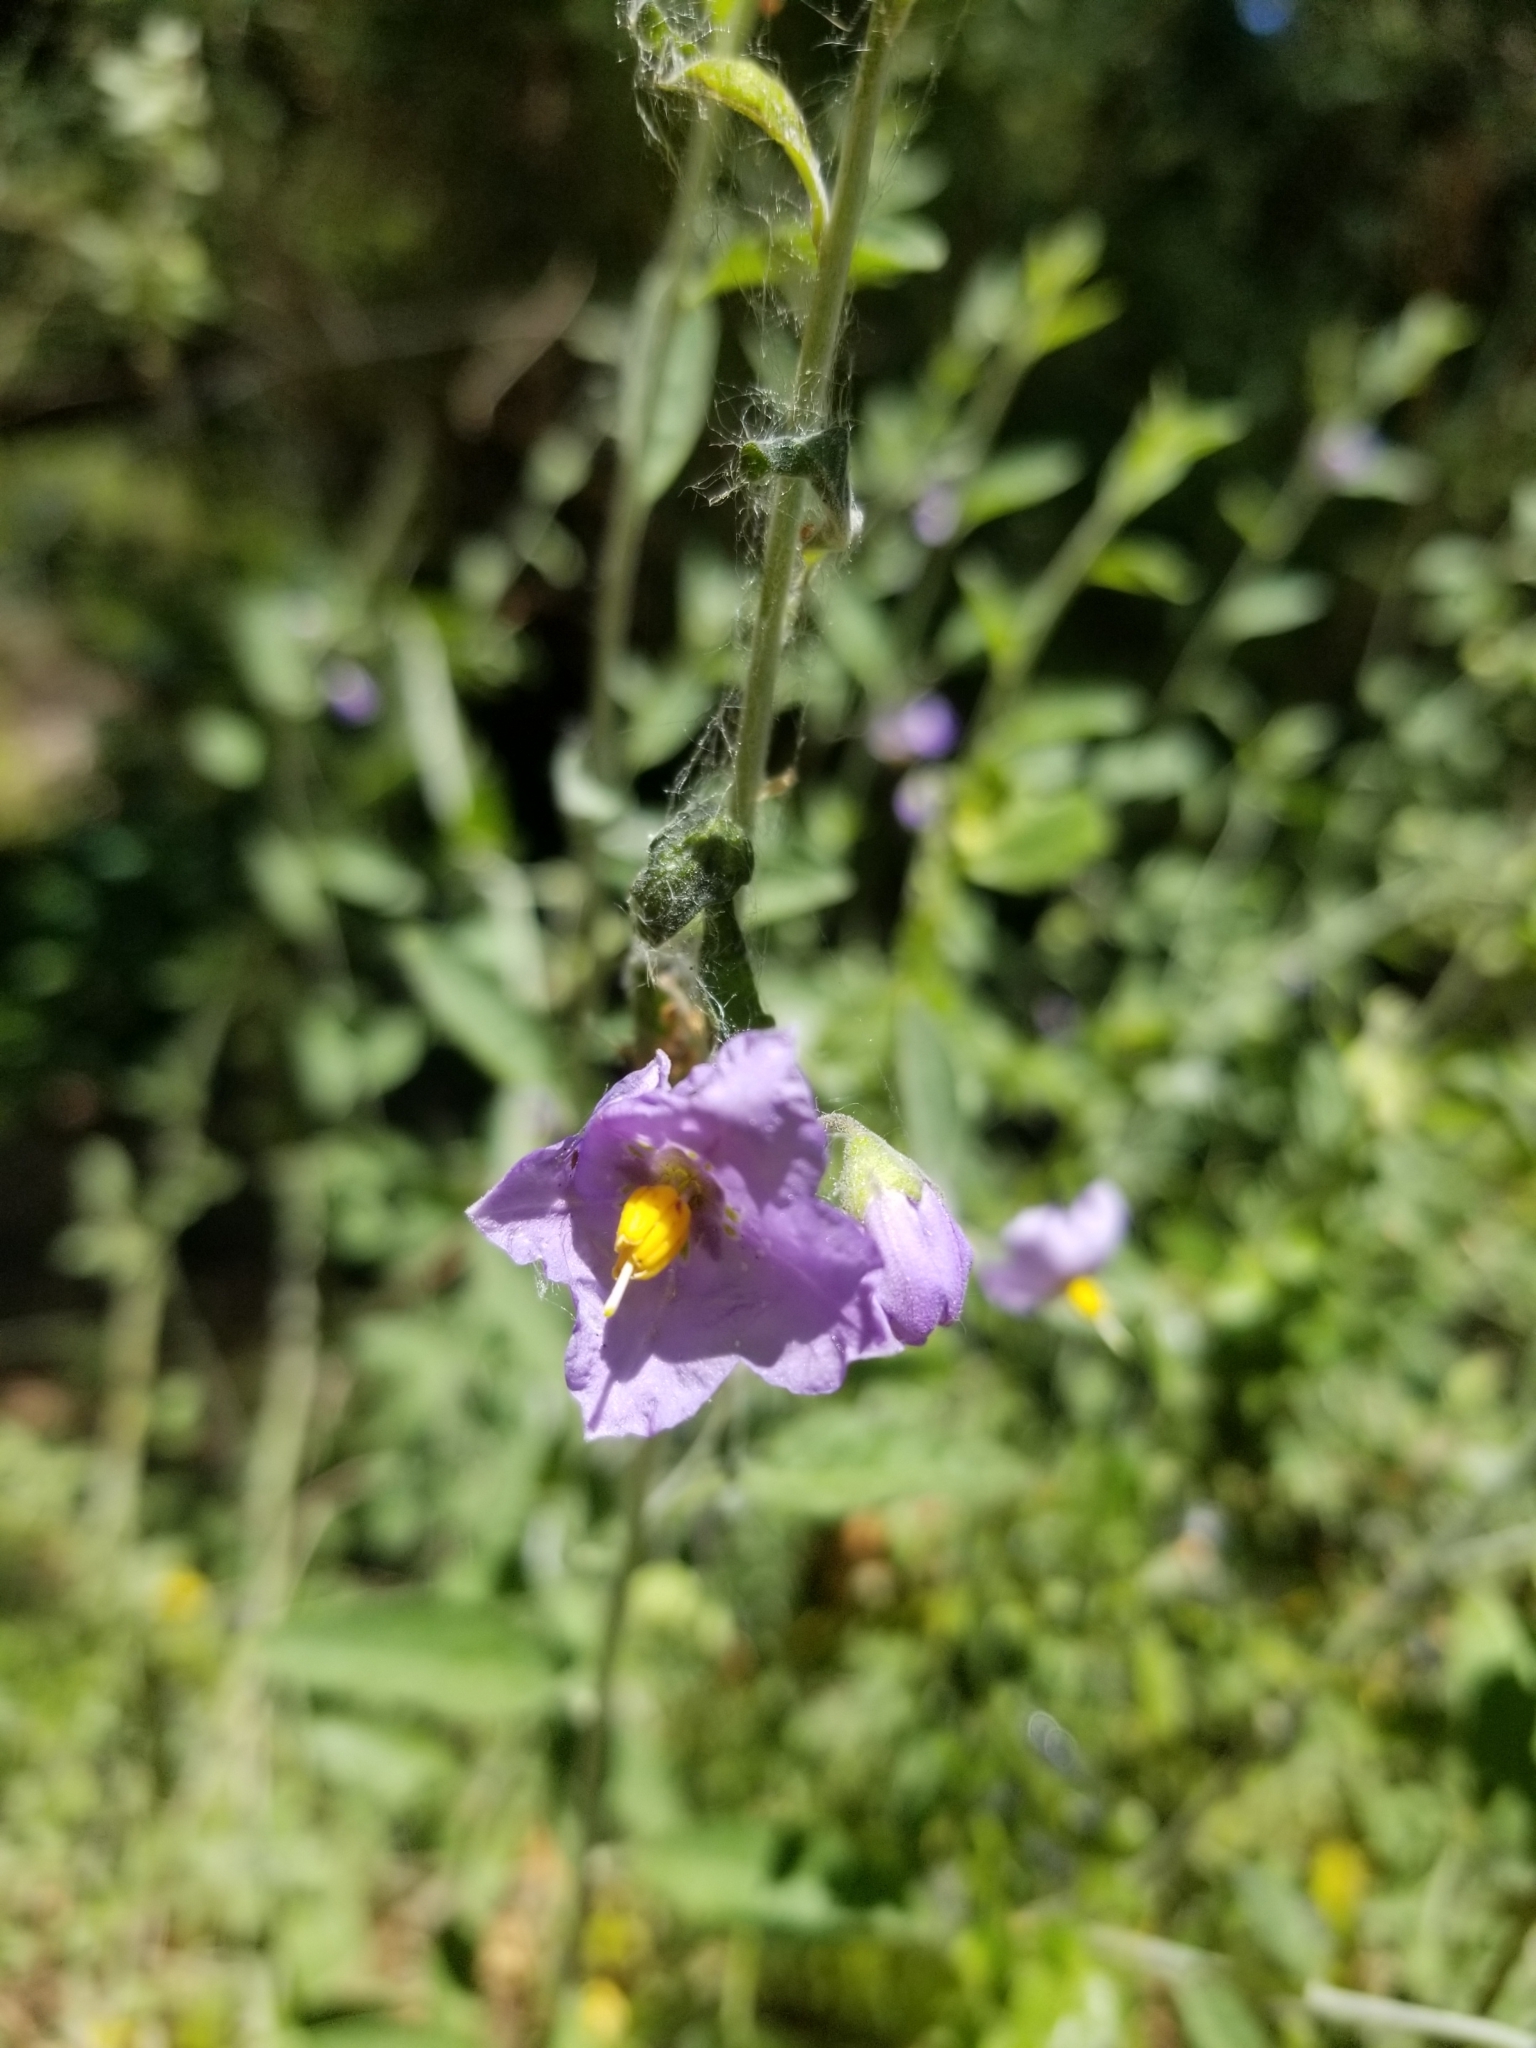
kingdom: Plantae
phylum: Tracheophyta
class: Magnoliopsida
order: Solanales
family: Solanaceae
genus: Solanum
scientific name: Solanum umbelliferum
